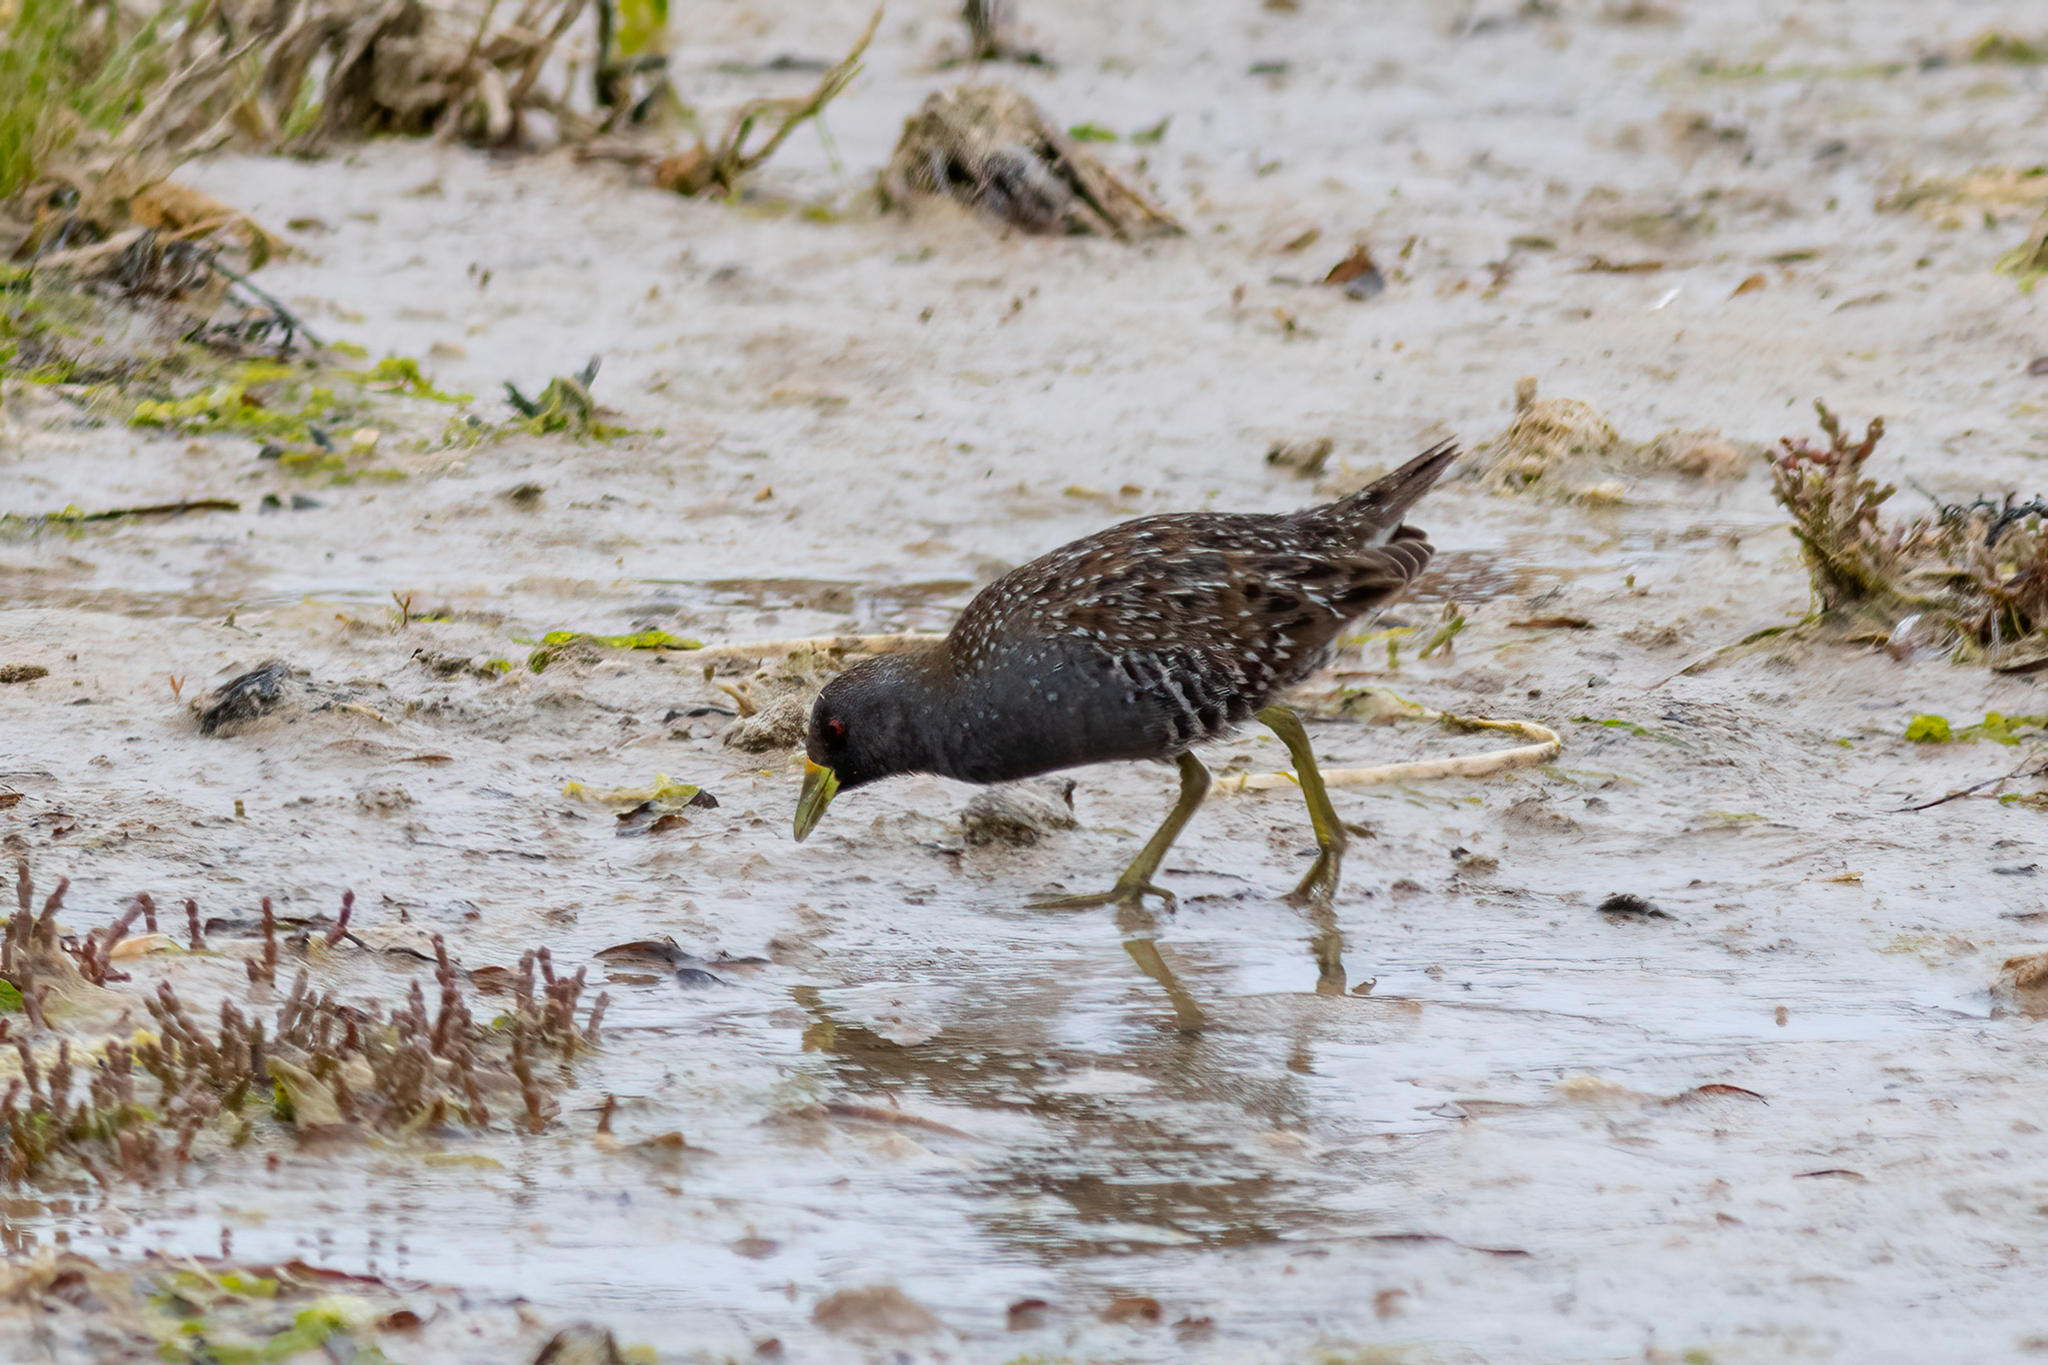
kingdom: Animalia
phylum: Chordata
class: Aves
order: Gruiformes
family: Rallidae
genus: Porzana
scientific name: Porzana fluminea
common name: Australian crake
